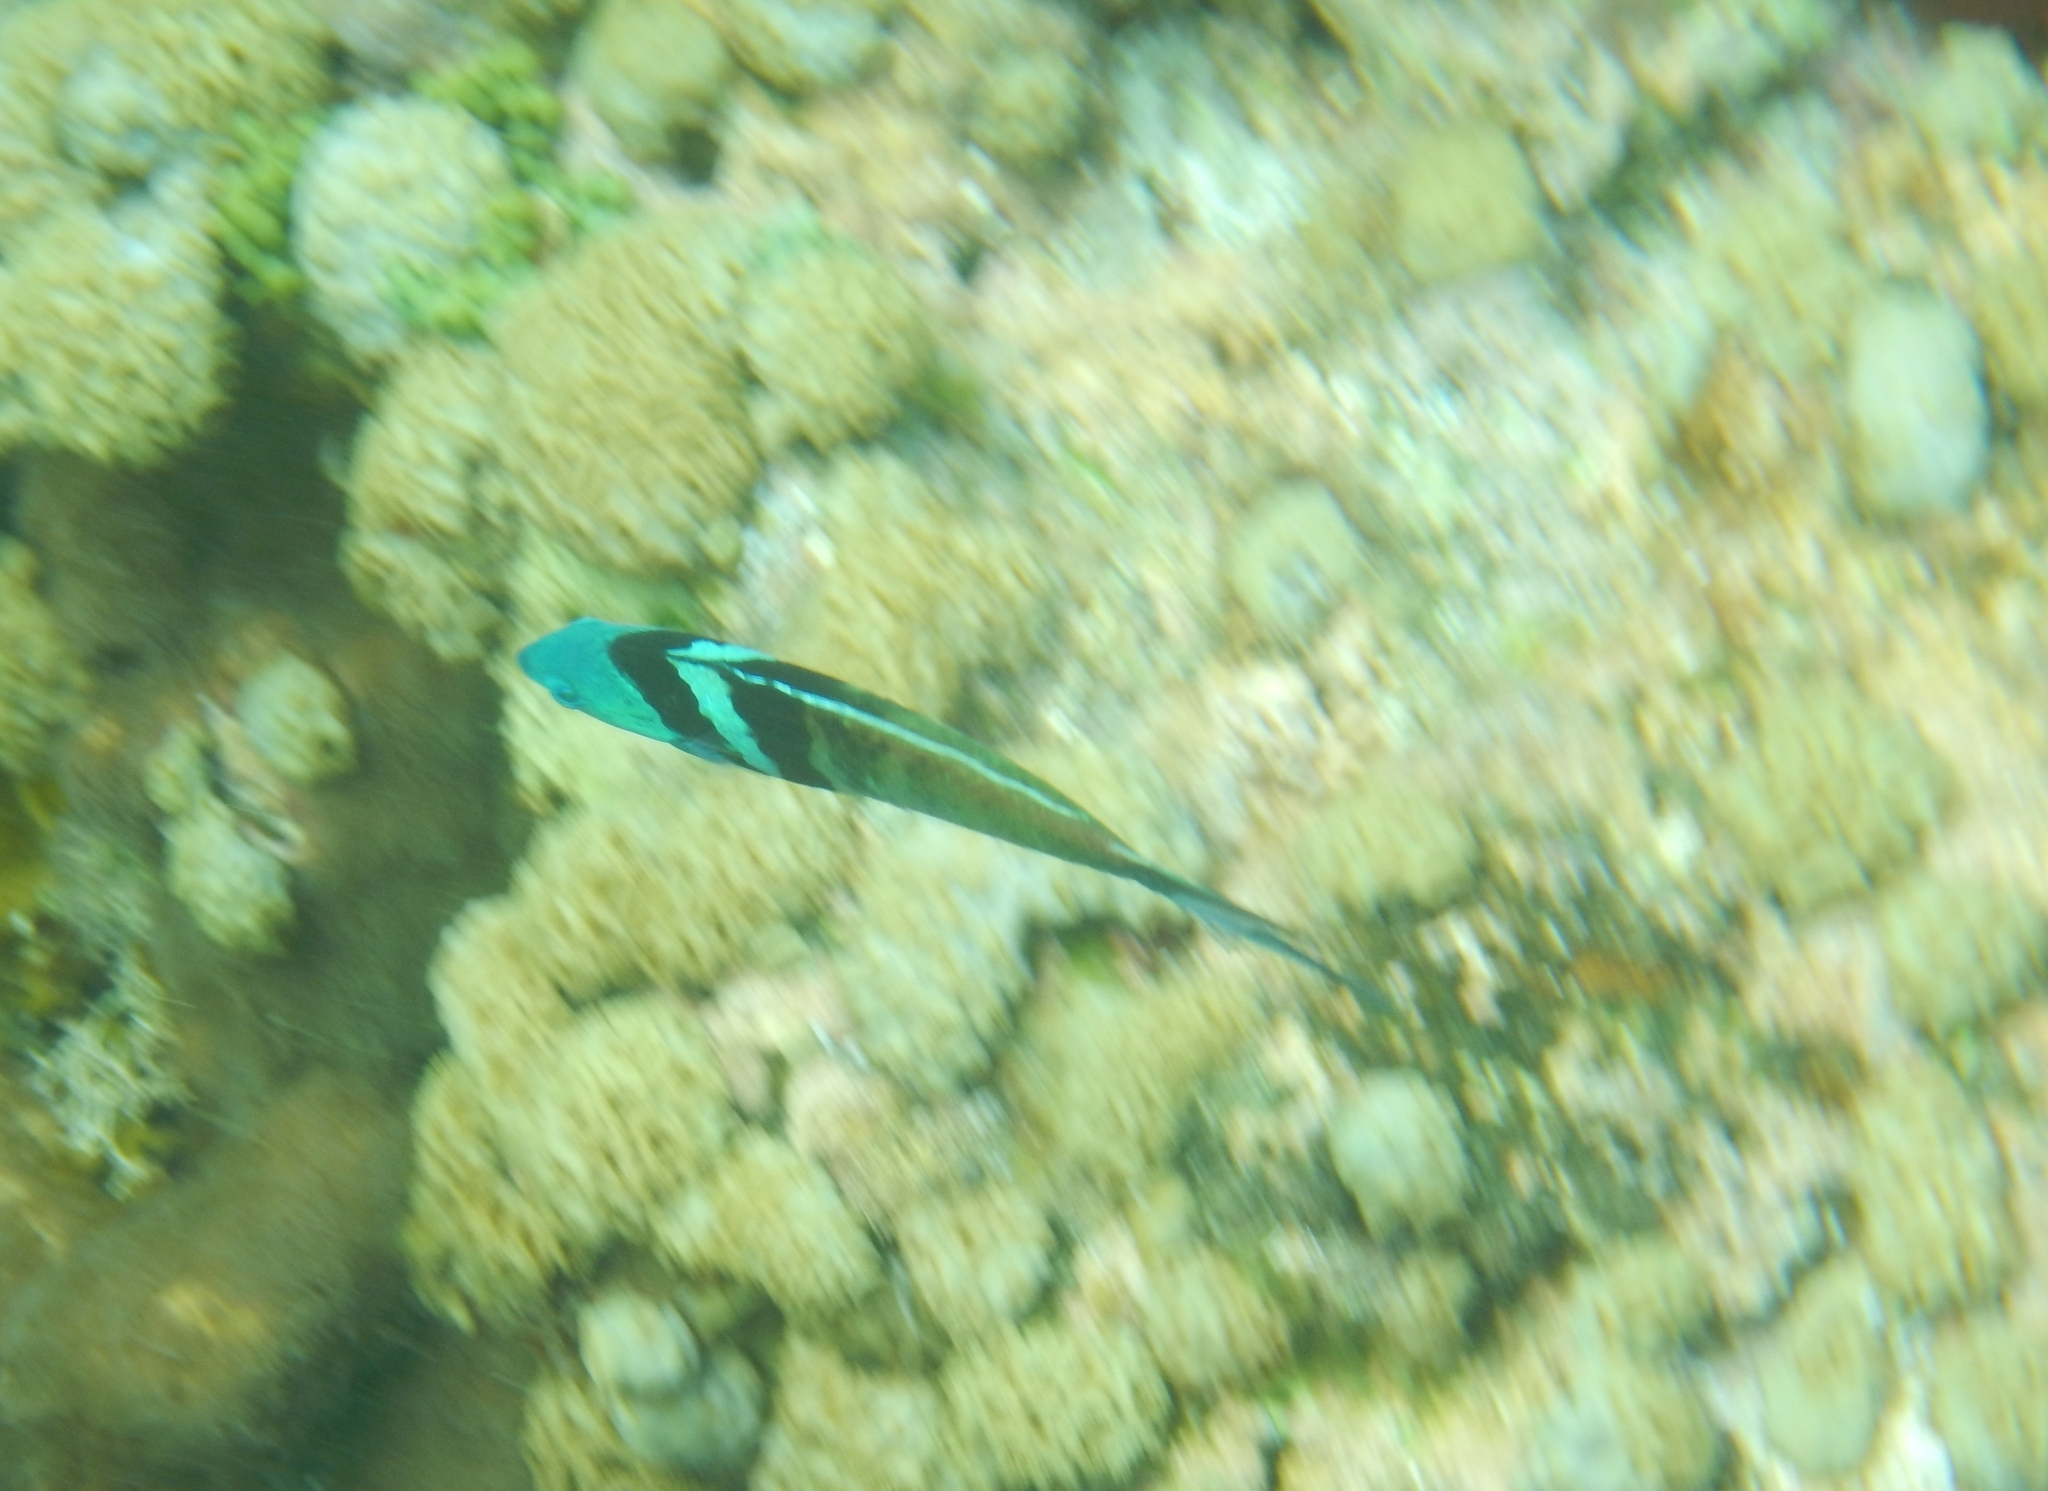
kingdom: Animalia
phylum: Chordata
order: Perciformes
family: Labridae
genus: Thalassoma
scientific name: Thalassoma bifasciatum
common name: Bluehead wrasse
